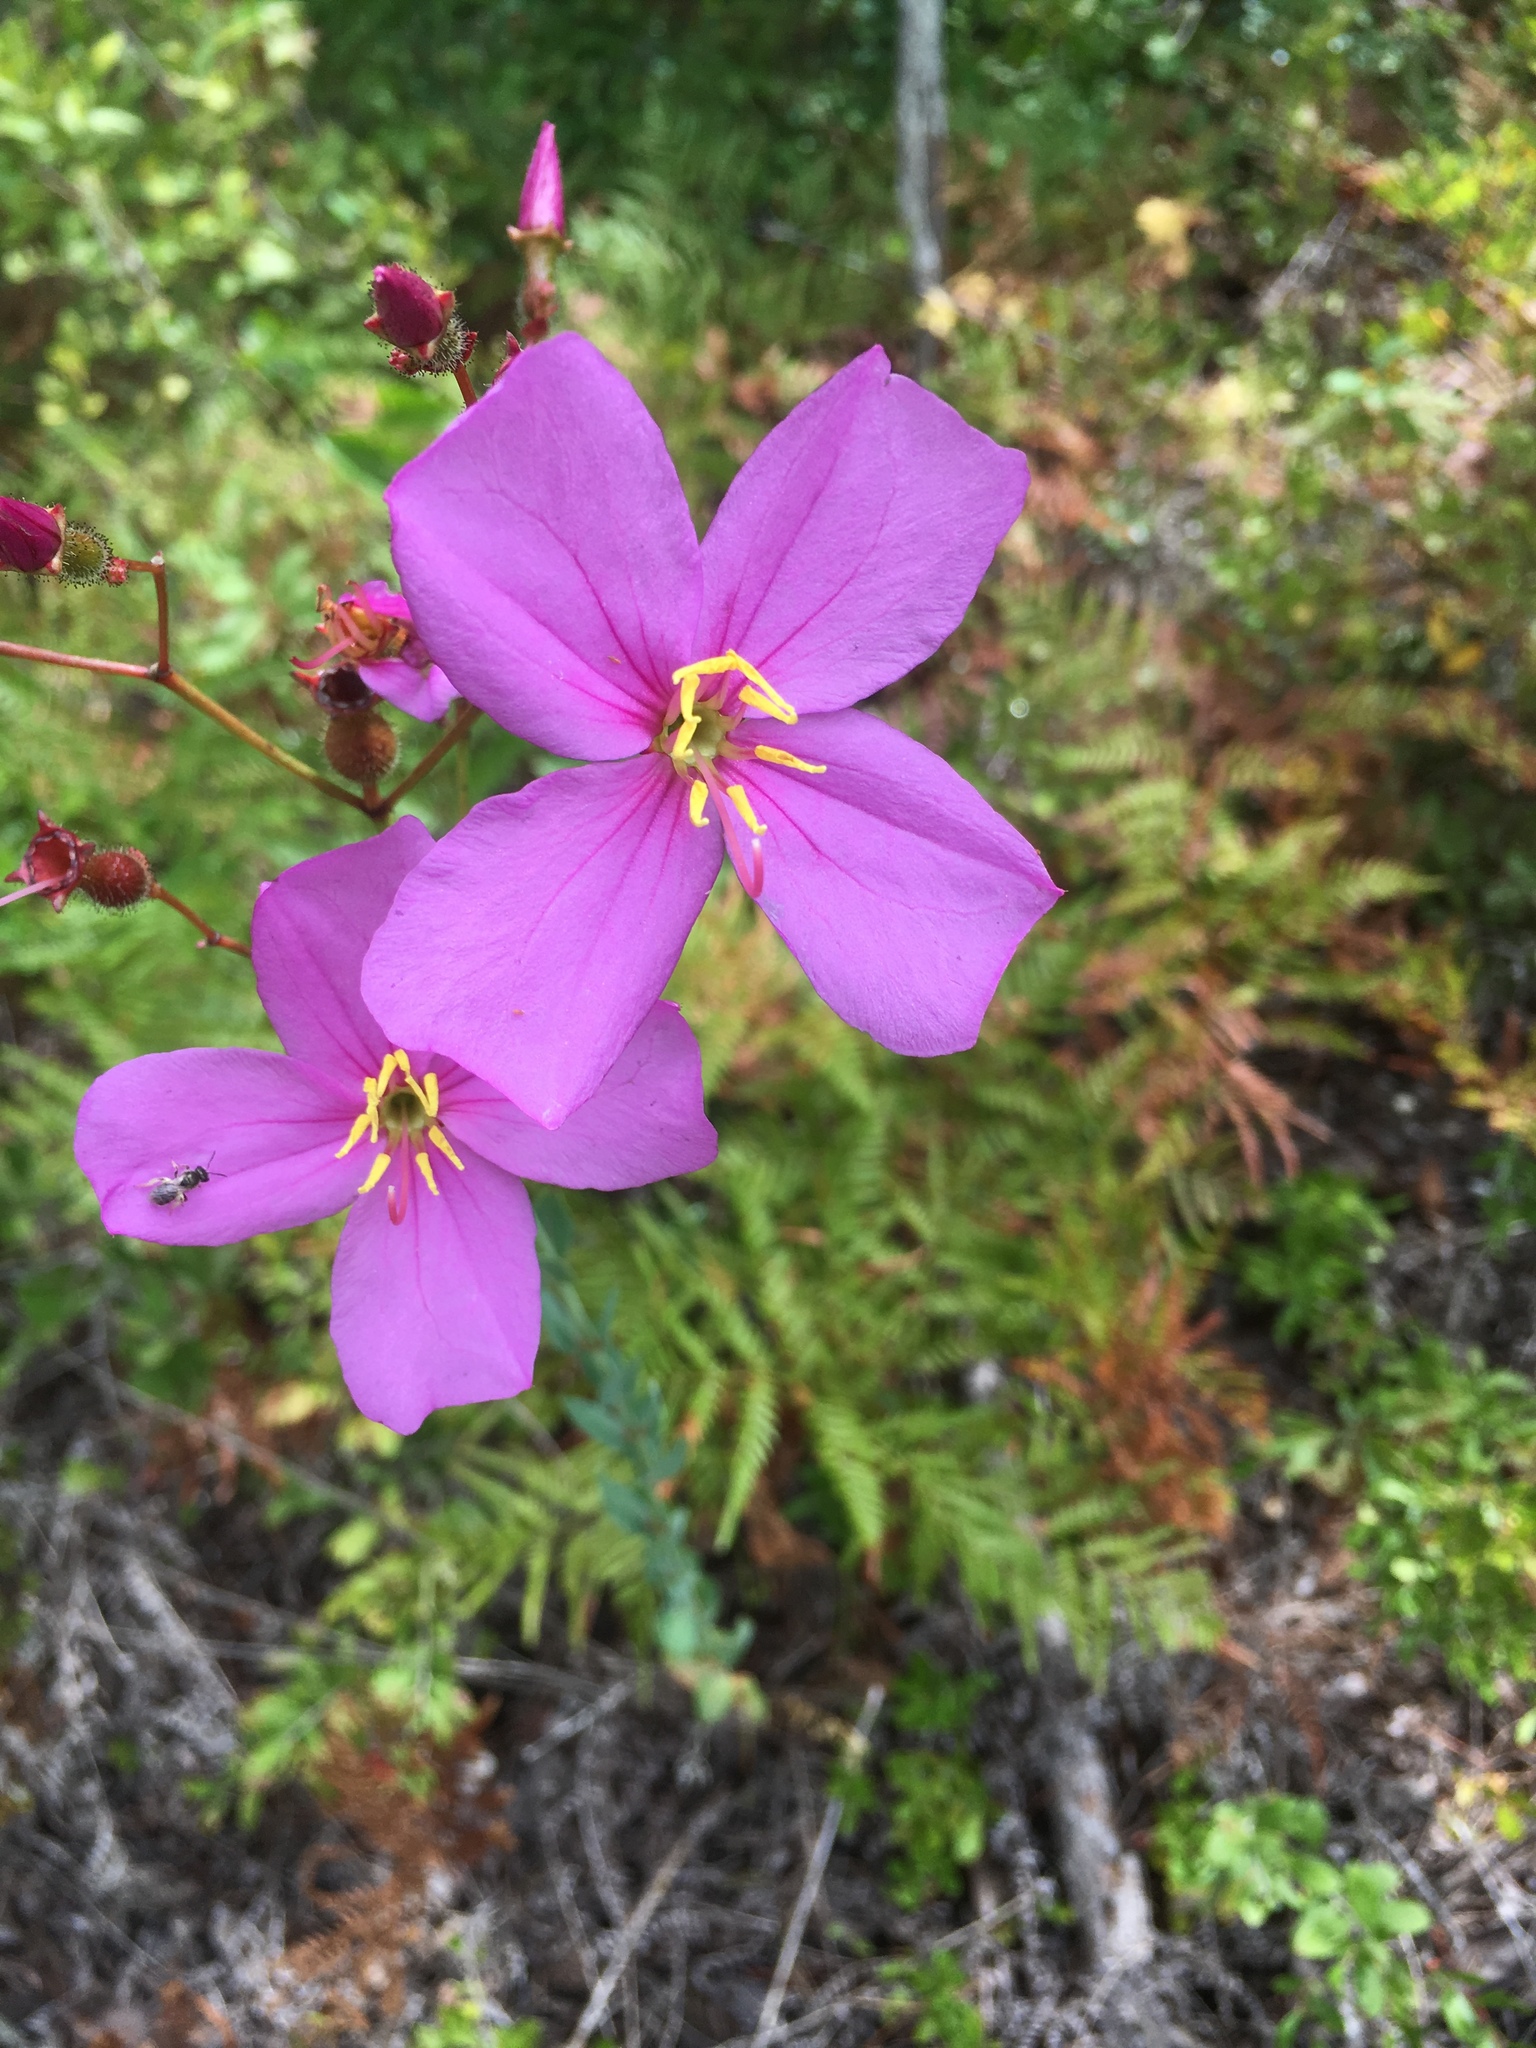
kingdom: Plantae
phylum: Tracheophyta
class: Magnoliopsida
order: Myrtales
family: Melastomataceae
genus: Rhexia
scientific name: Rhexia alifanus
